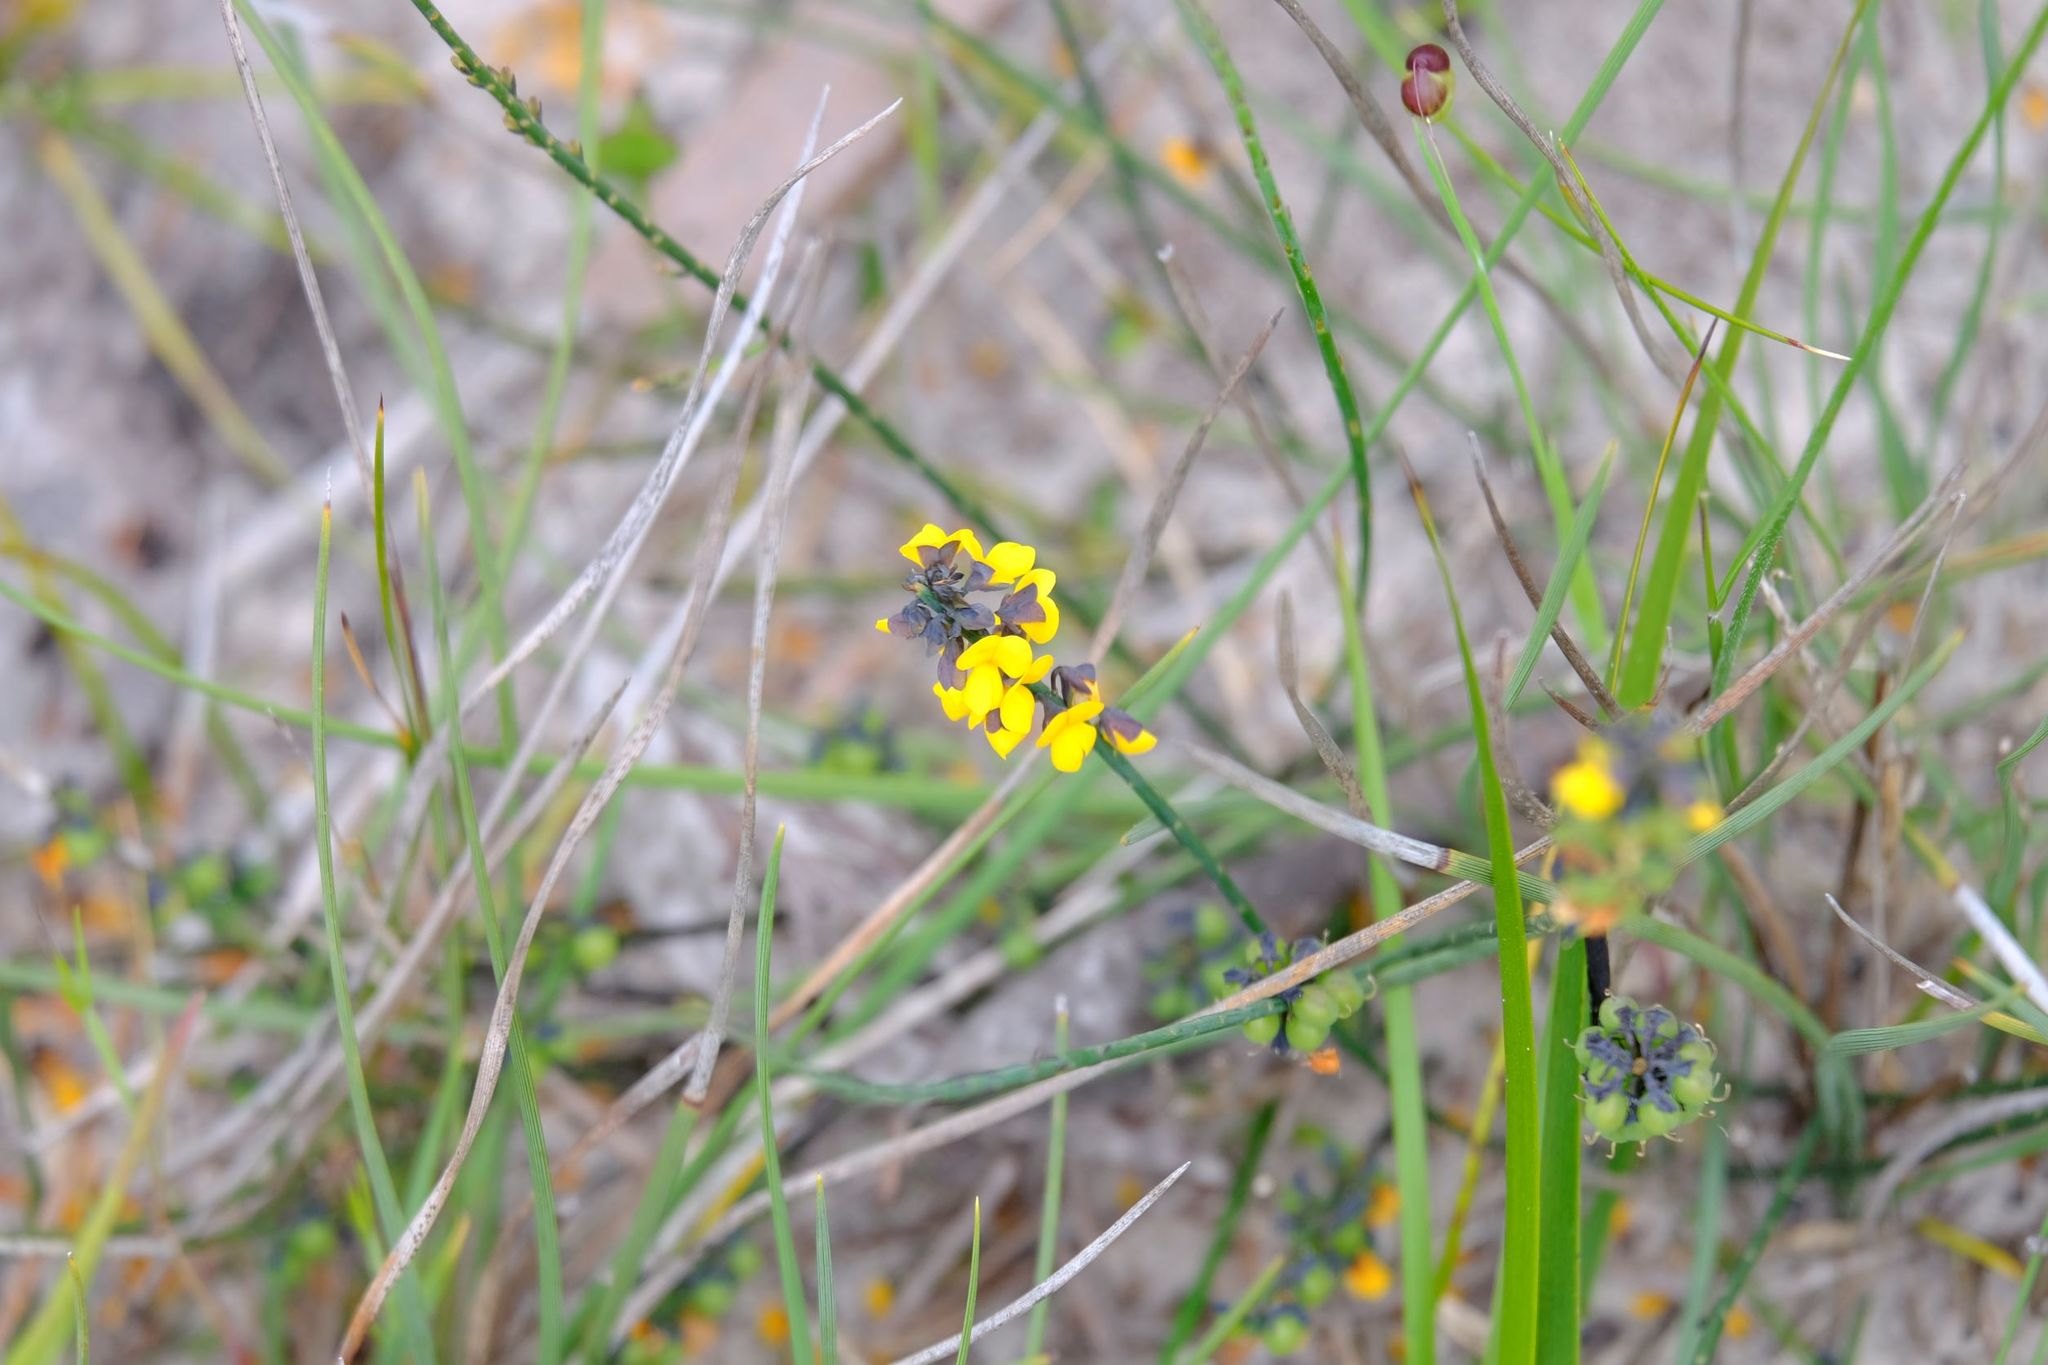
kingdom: Plantae
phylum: Tracheophyta
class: Magnoliopsida
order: Fabales
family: Fabaceae
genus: Sphaerolobium
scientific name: Sphaerolobium minus
